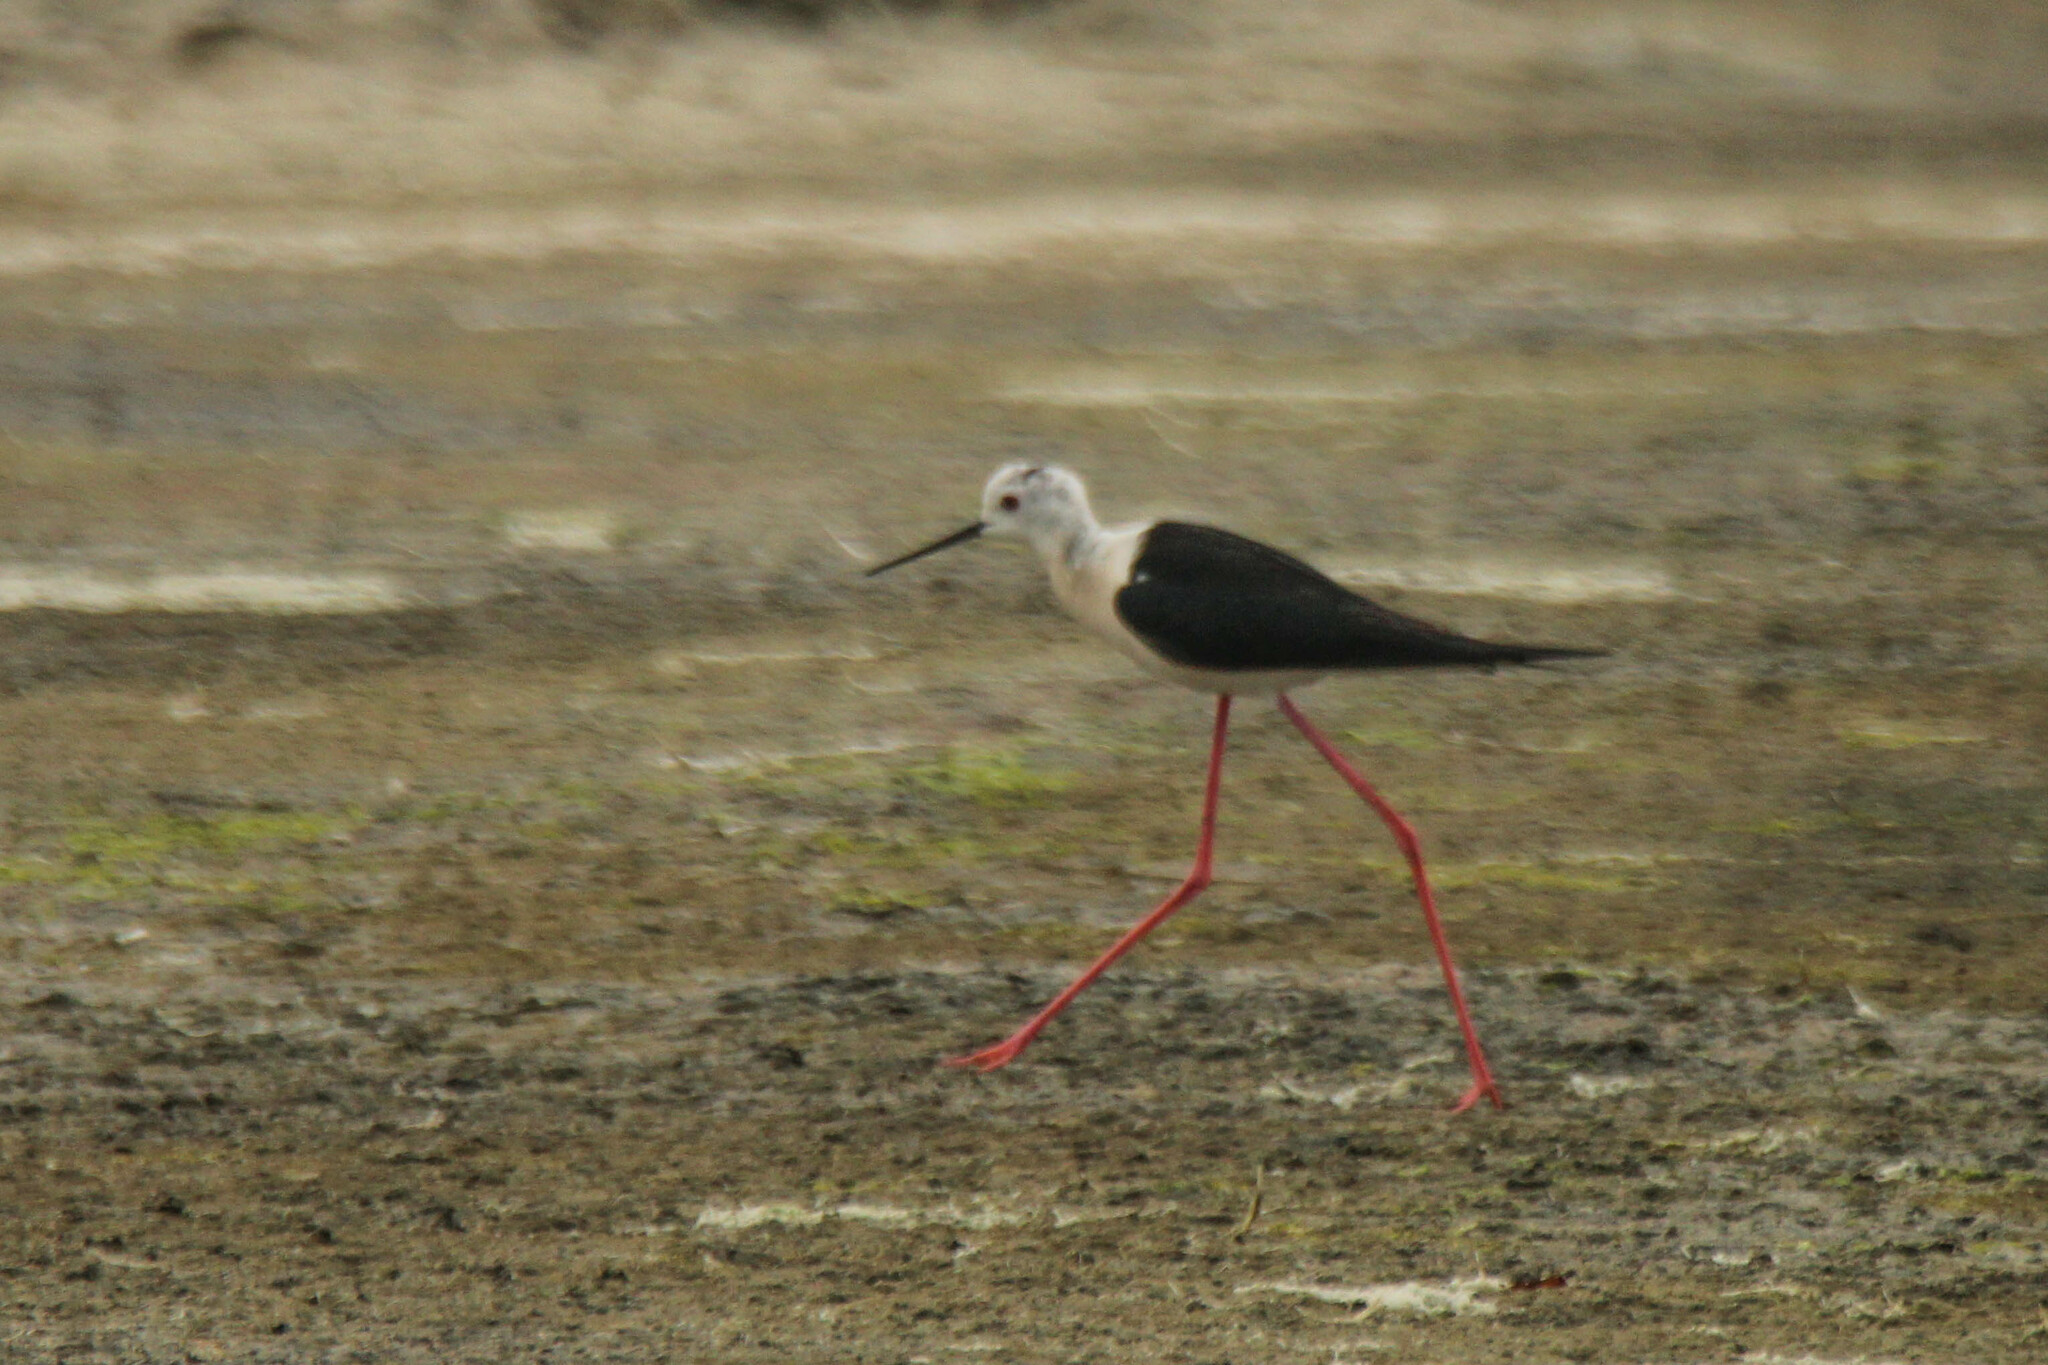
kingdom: Animalia
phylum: Chordata
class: Aves
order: Charadriiformes
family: Recurvirostridae
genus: Himantopus
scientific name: Himantopus himantopus
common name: Black-winged stilt
